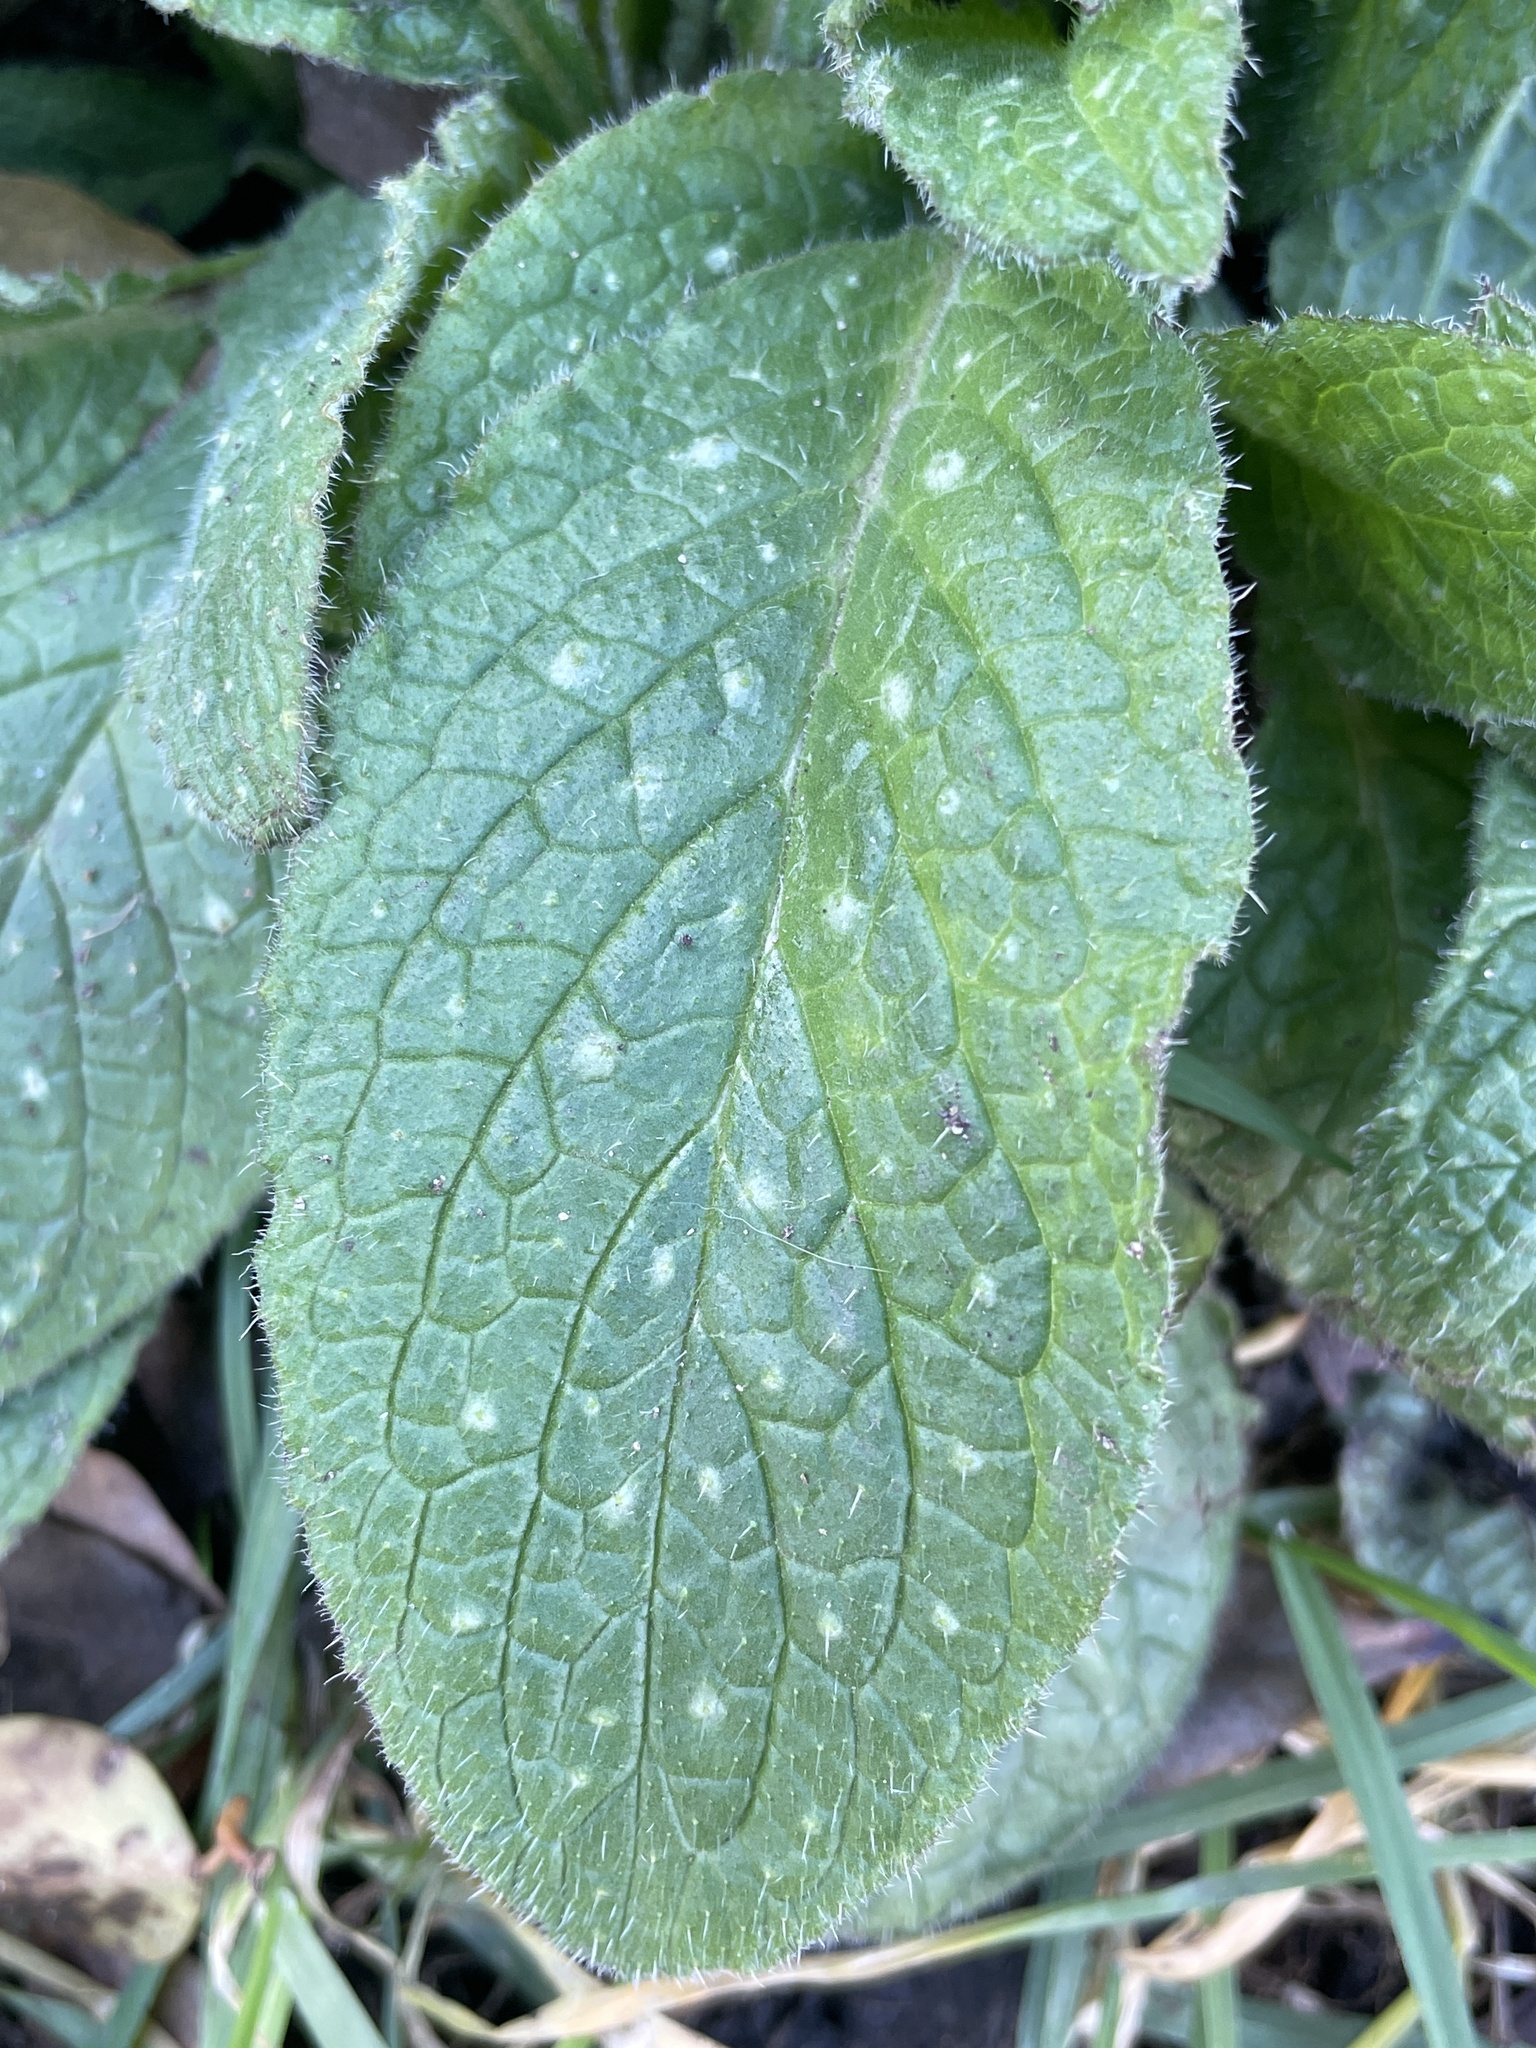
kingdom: Plantae
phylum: Tracheophyta
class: Magnoliopsida
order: Boraginales
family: Boraginaceae
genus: Pentaglottis
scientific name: Pentaglottis sempervirens
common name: Green alkanet
